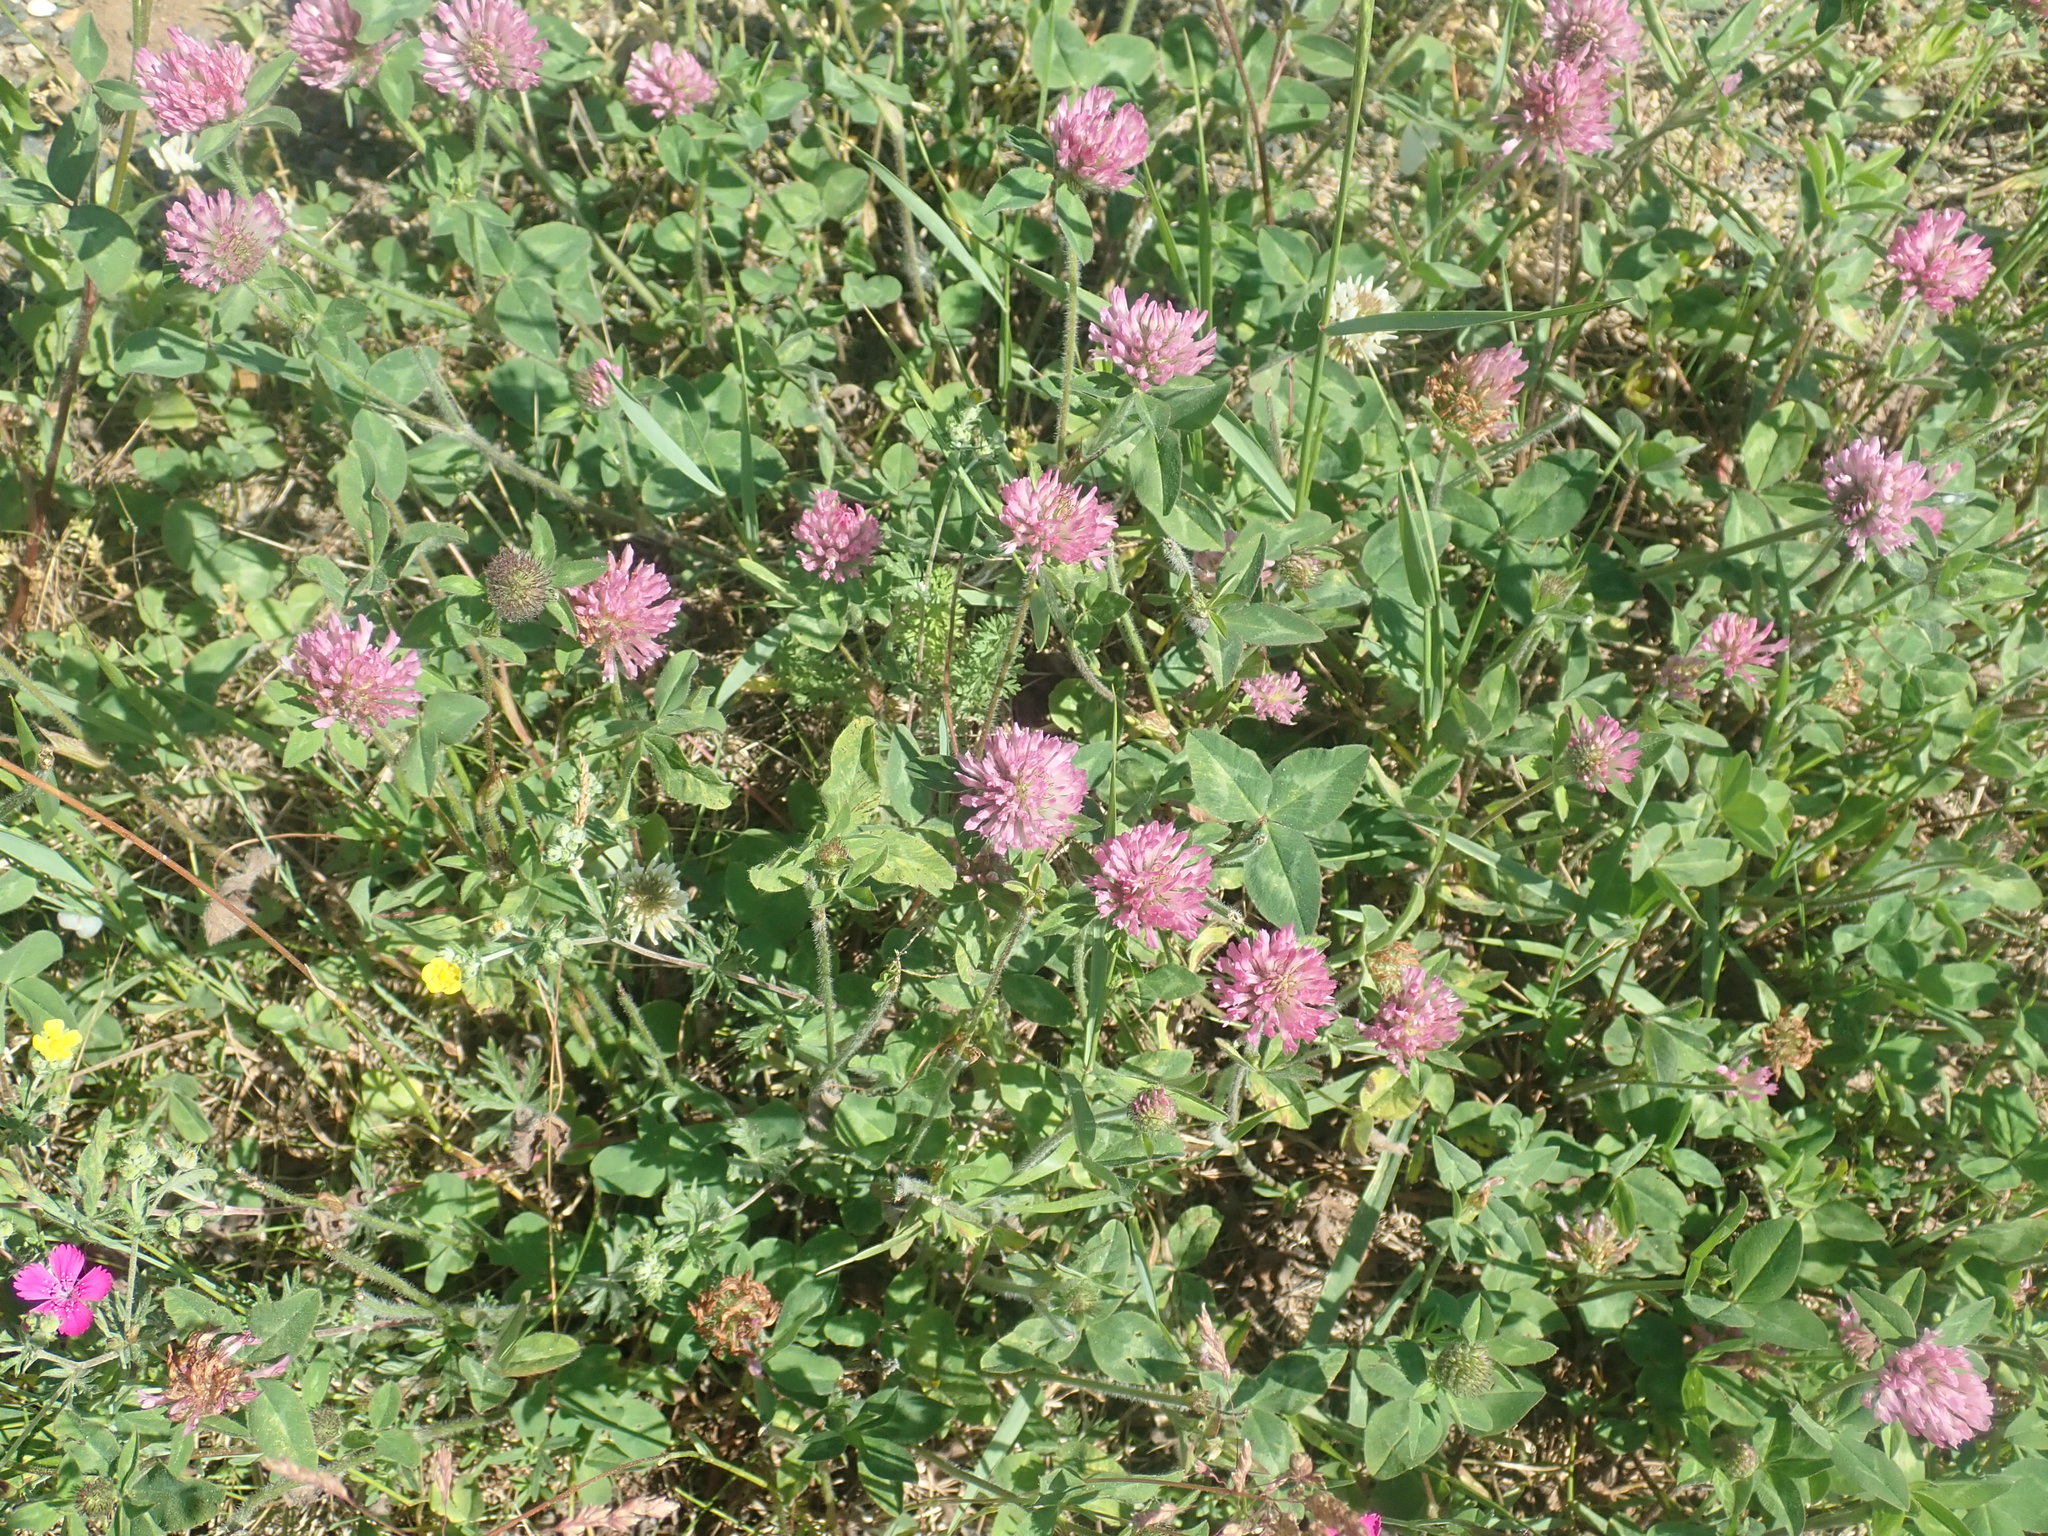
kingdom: Plantae
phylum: Tracheophyta
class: Magnoliopsida
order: Fabales
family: Fabaceae
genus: Trifolium
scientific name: Trifolium pratense
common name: Red clover
